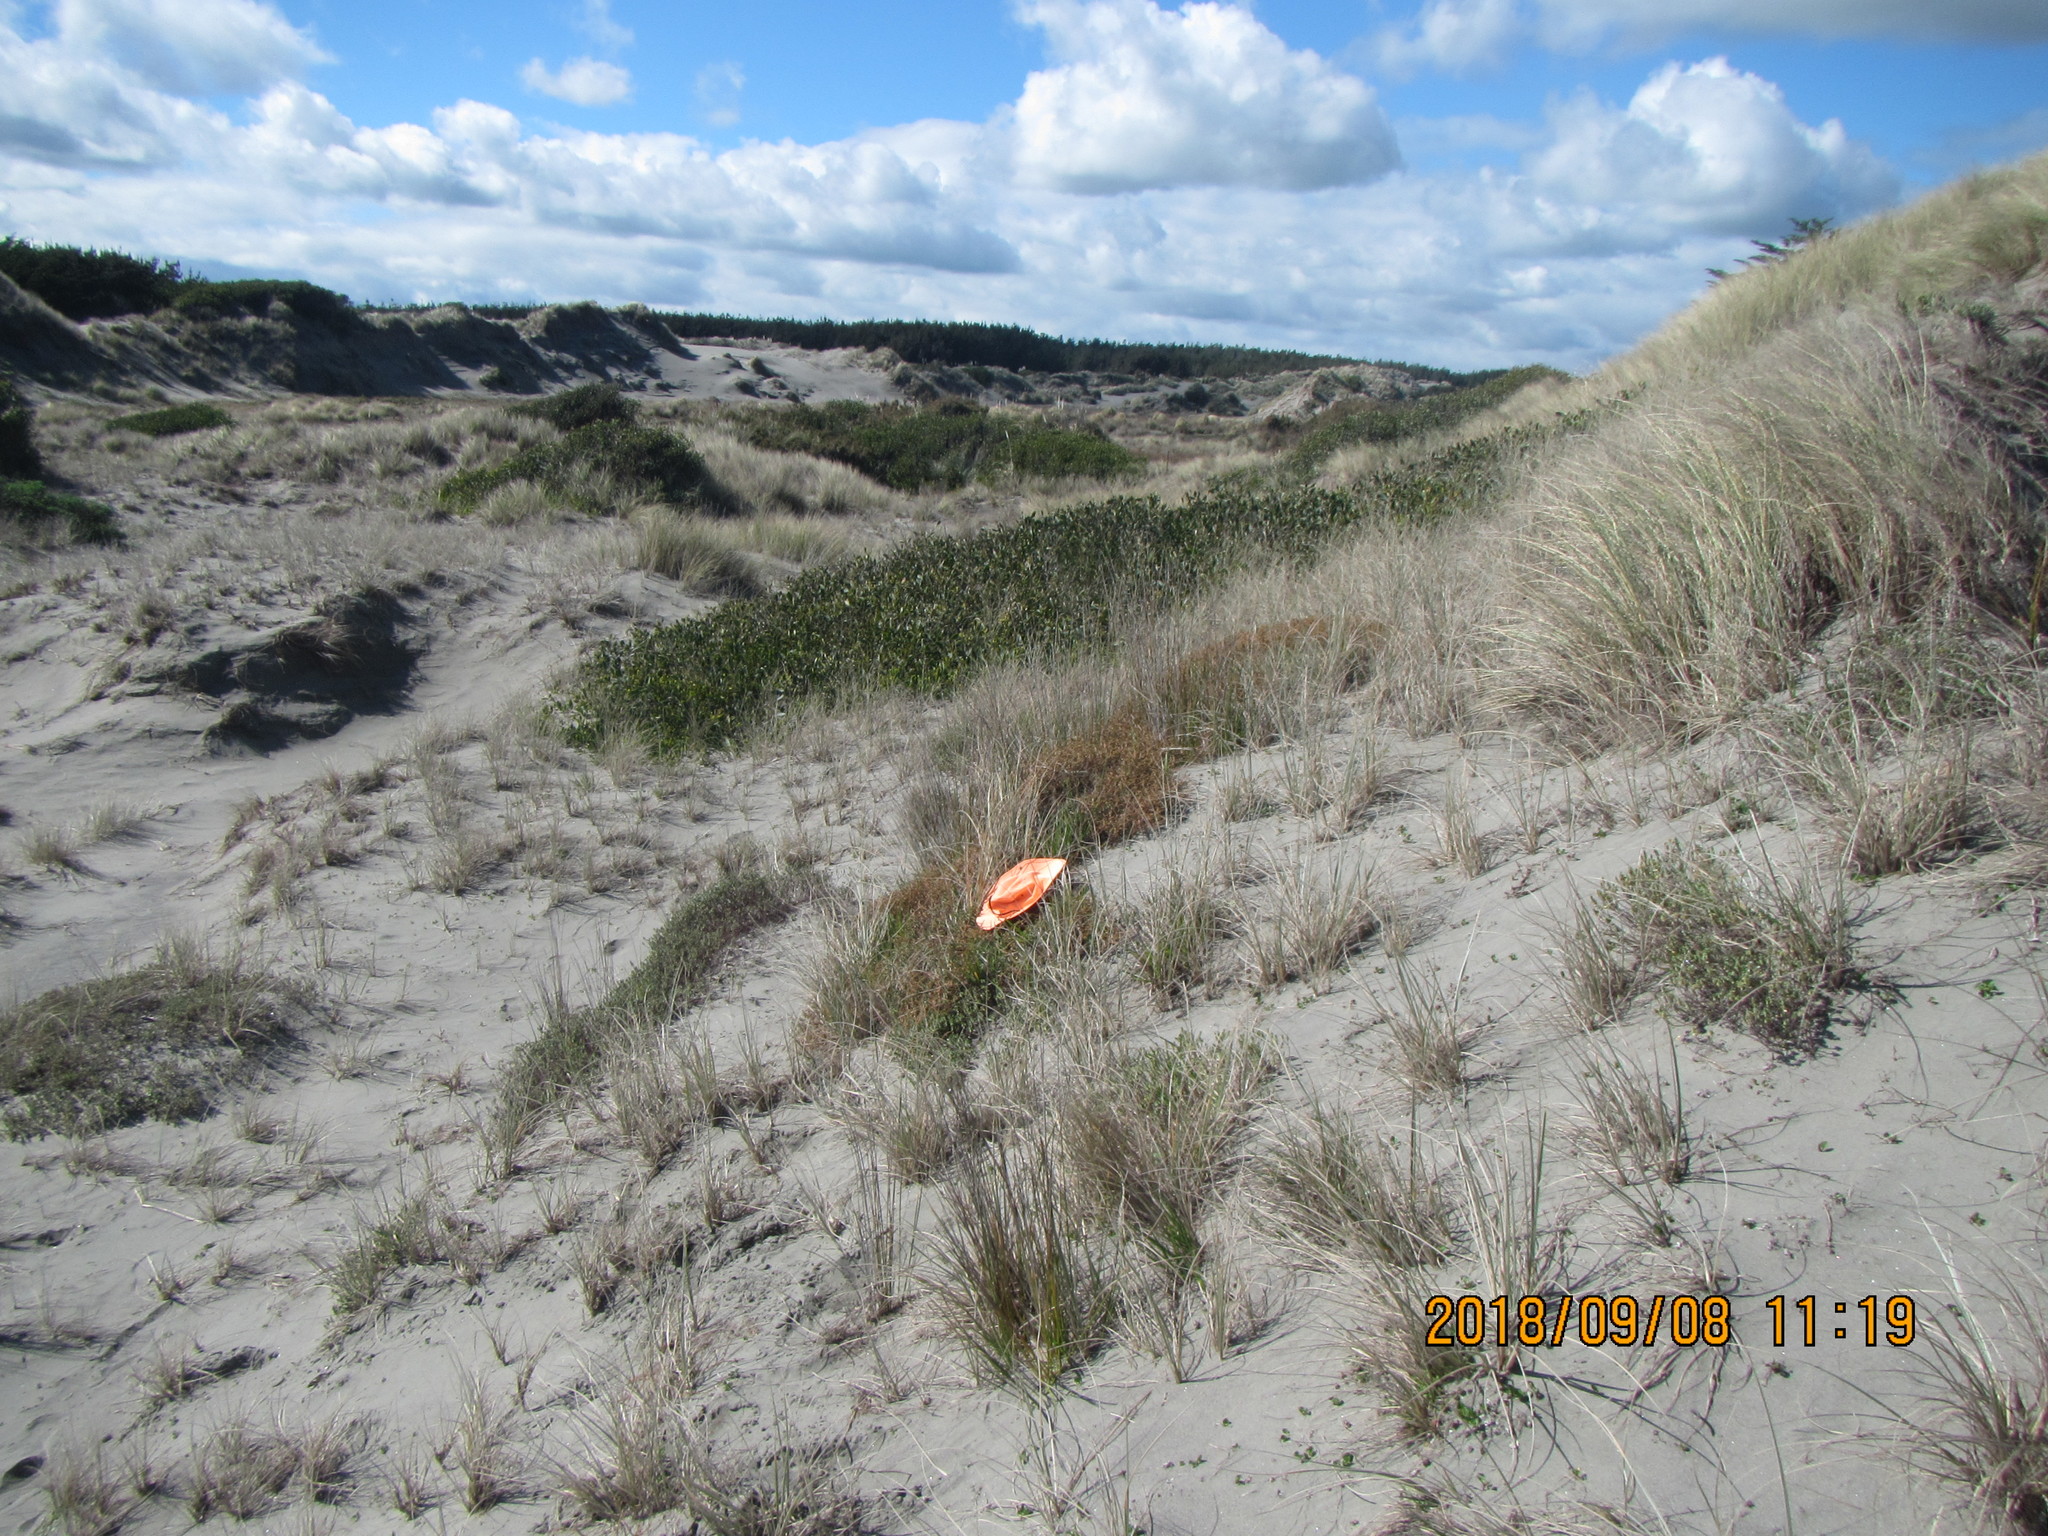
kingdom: Plantae
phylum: Tracheophyta
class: Magnoliopsida
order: Malvales
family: Thymelaeaceae
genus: Pimelea
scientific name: Pimelea villosa
